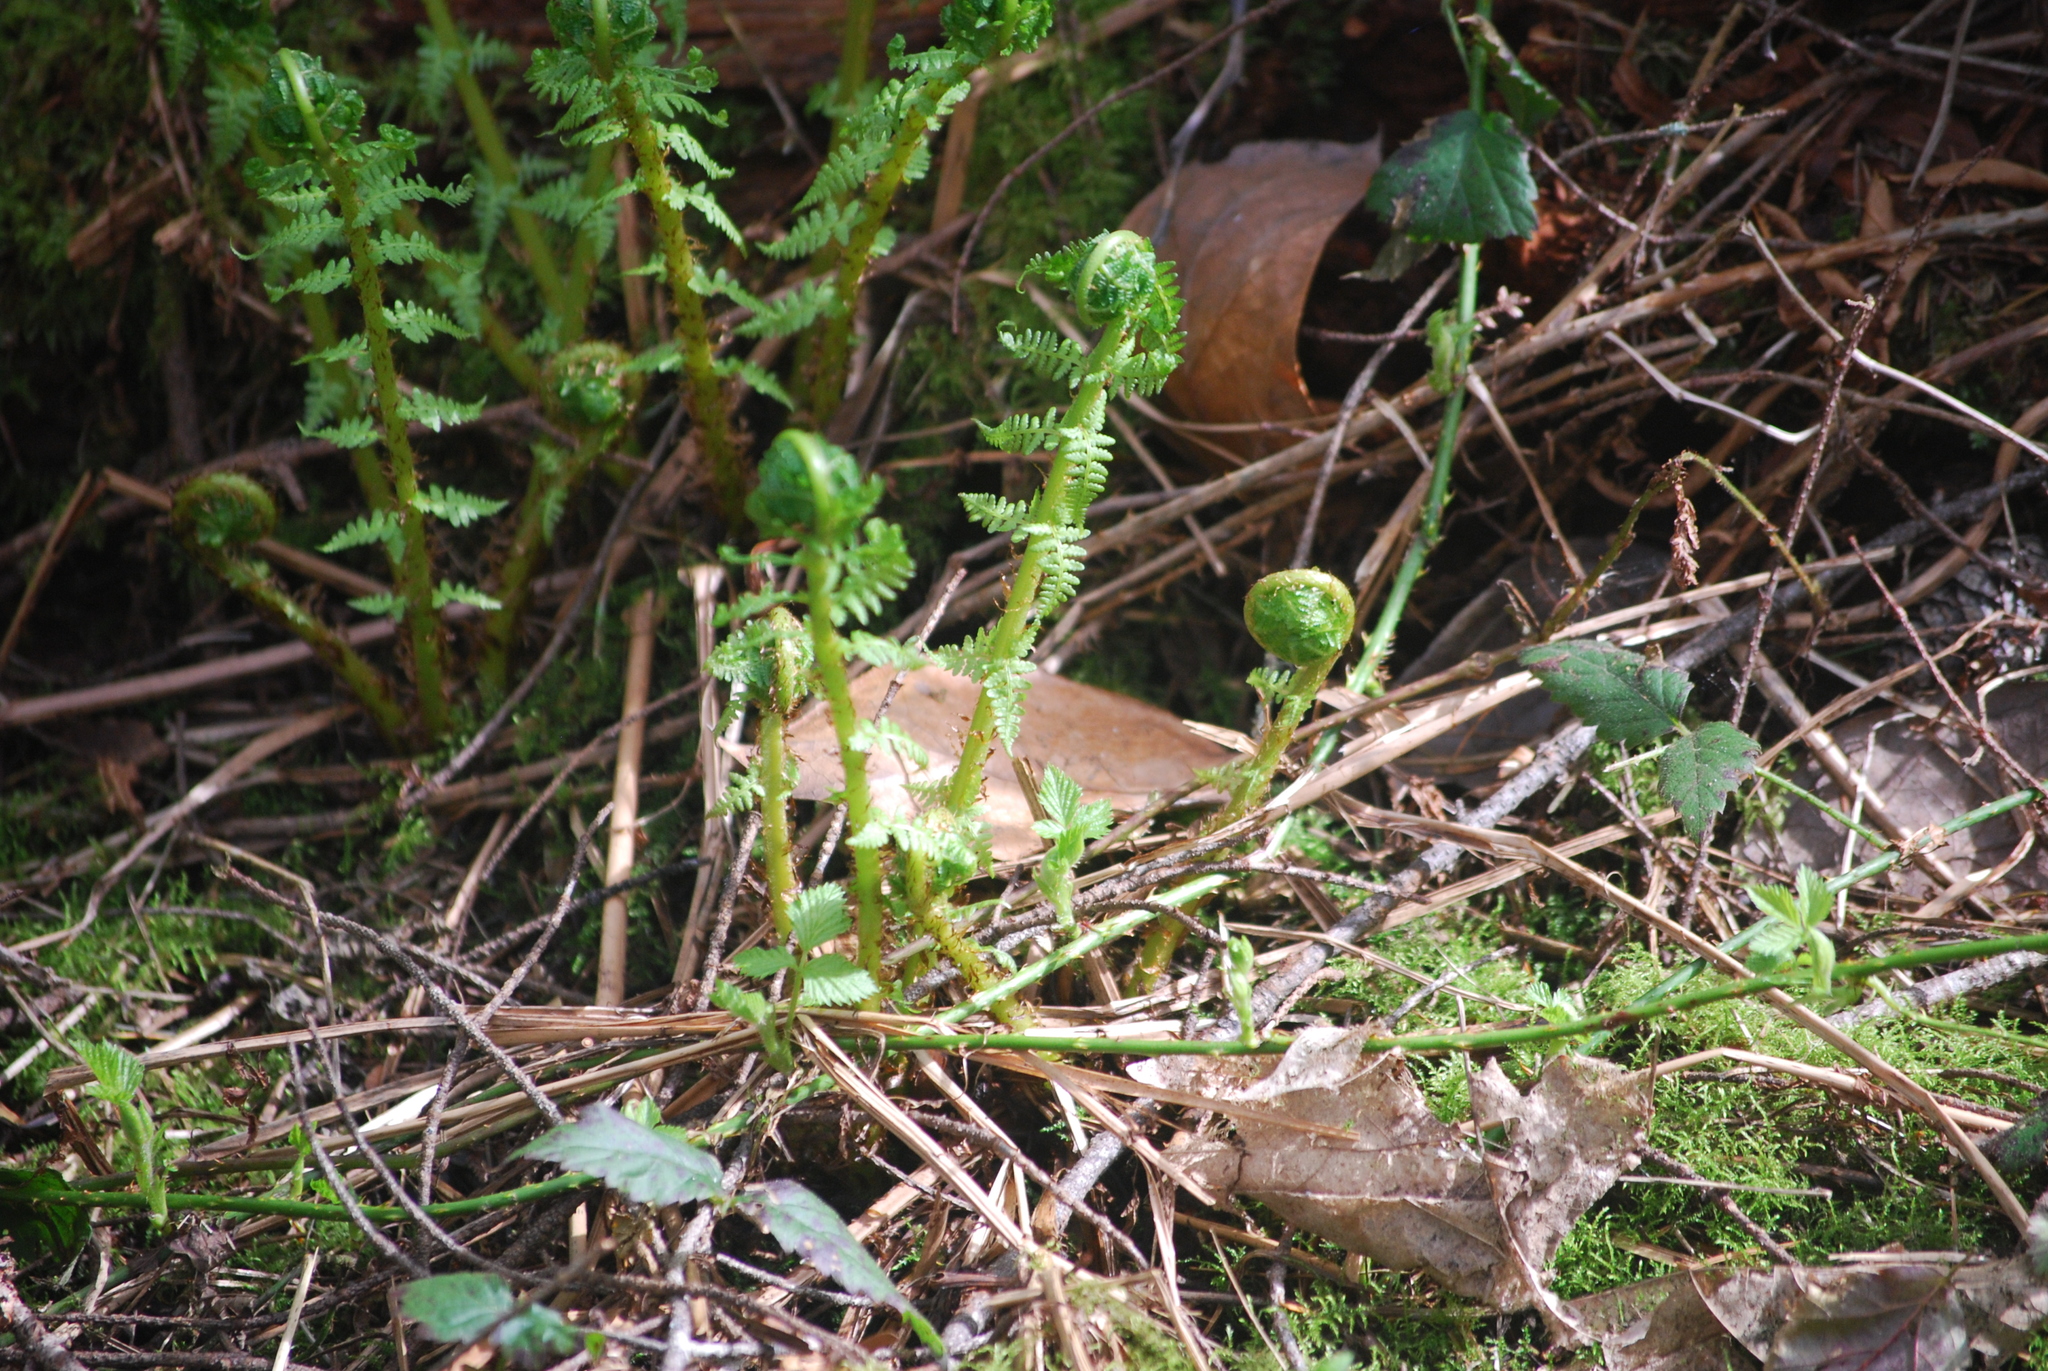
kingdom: Plantae
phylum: Tracheophyta
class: Polypodiopsida
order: Polypodiales
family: Athyriaceae
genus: Athyrium
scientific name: Athyrium filix-femina
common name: Lady fern
